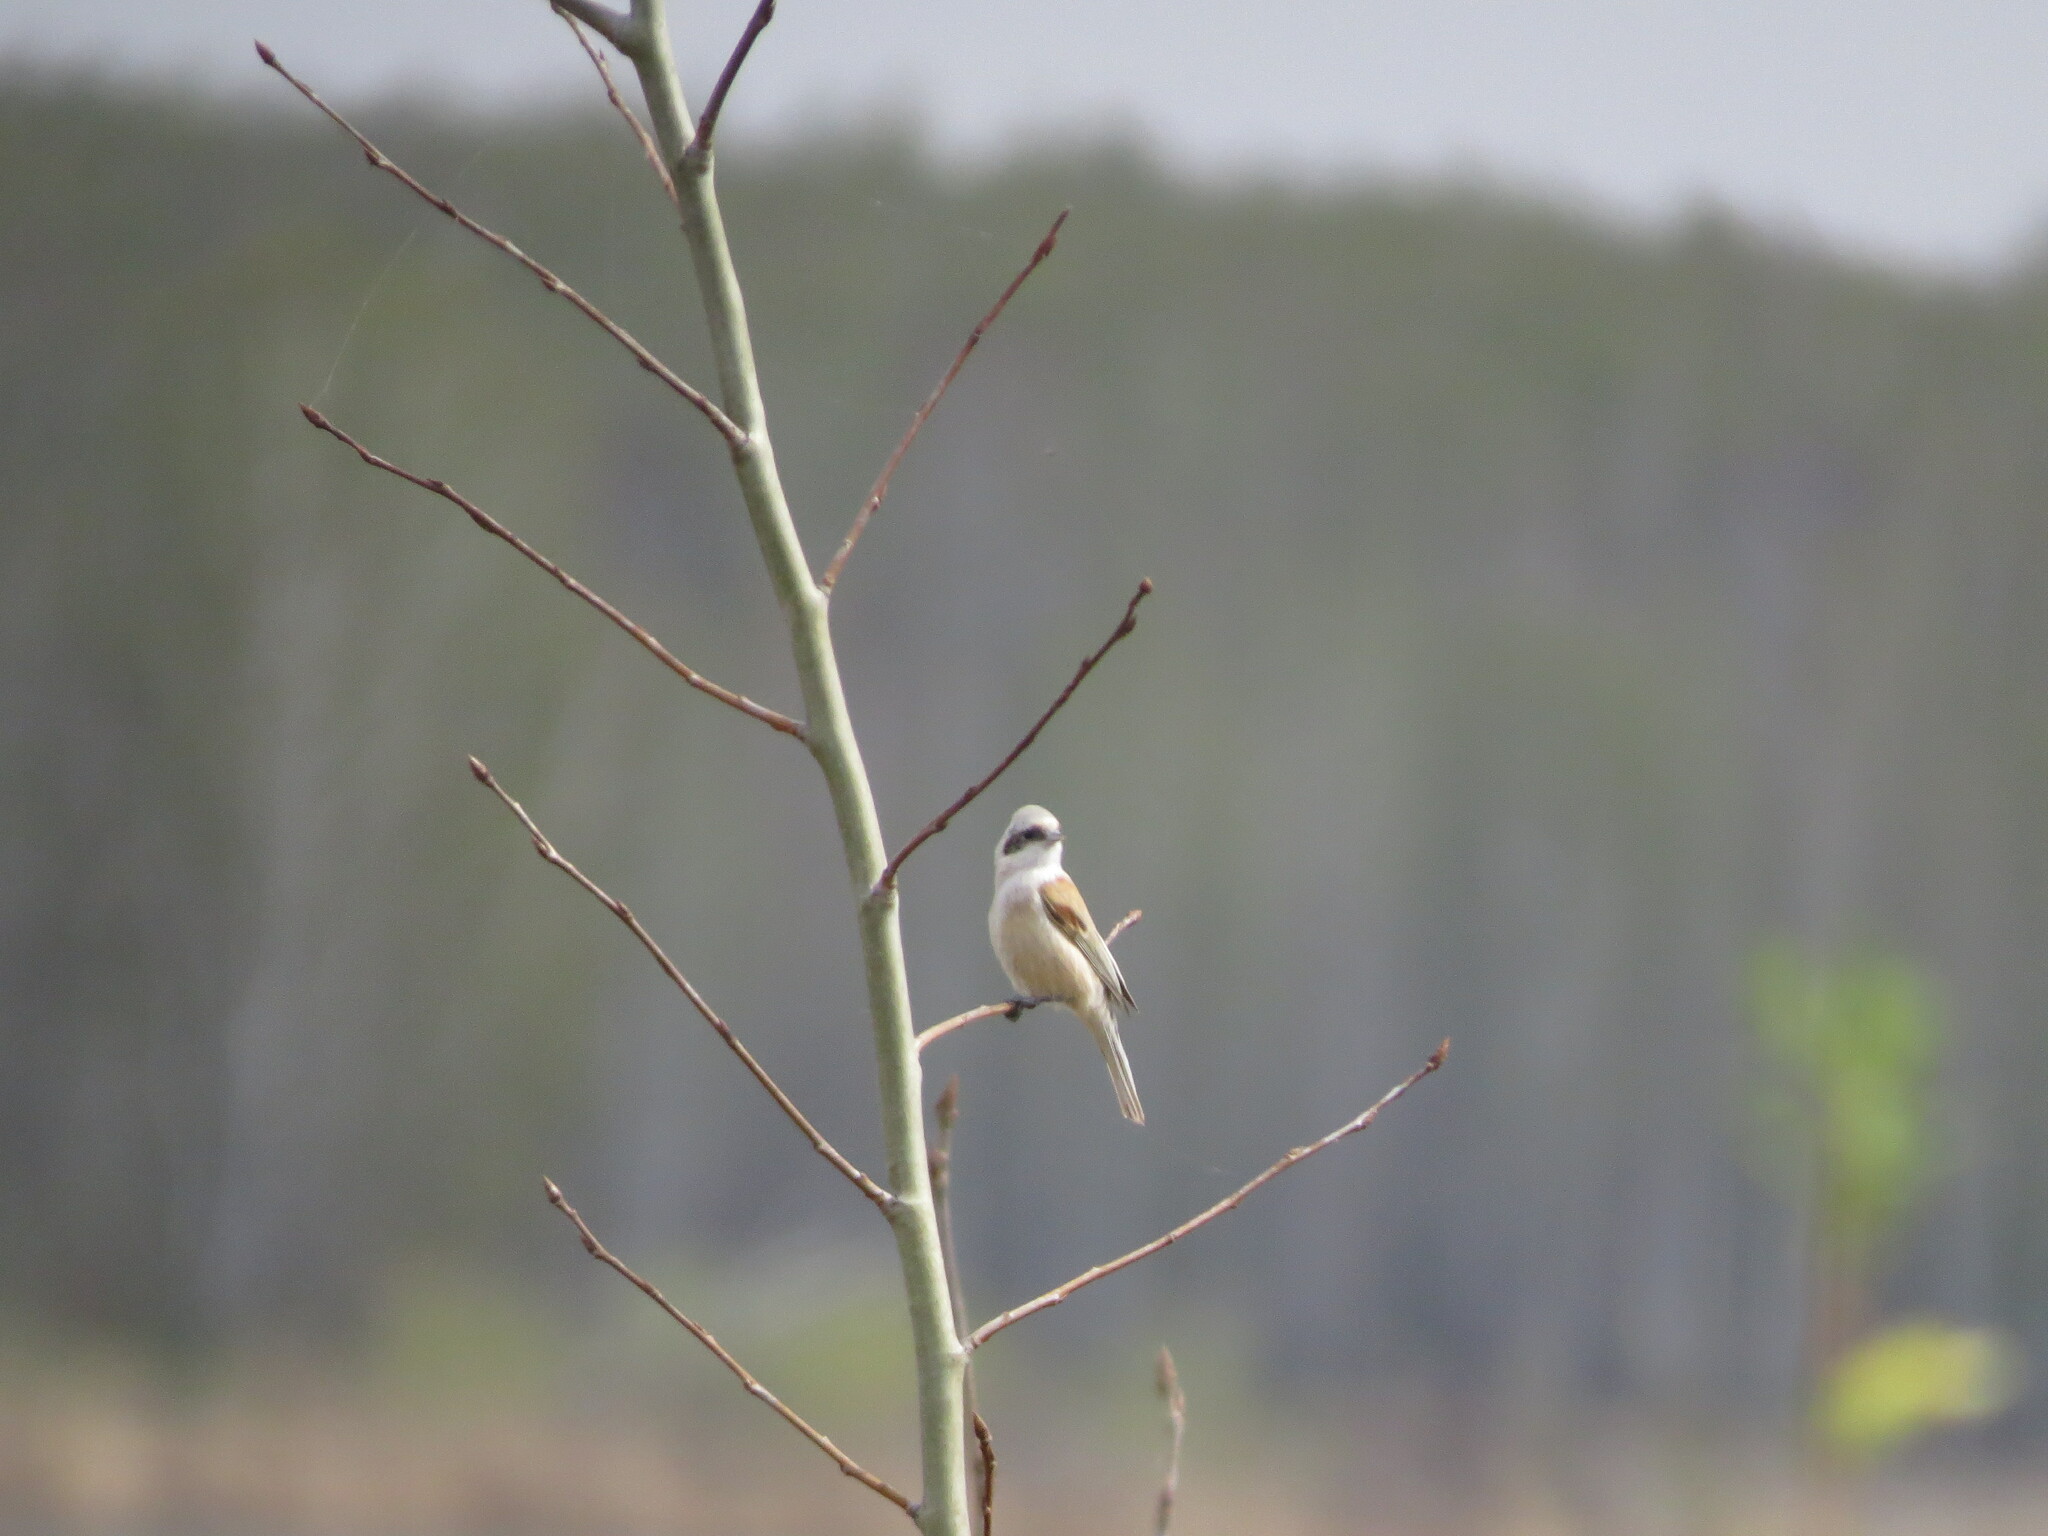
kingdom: Animalia
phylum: Chordata
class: Aves
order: Passeriformes
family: Remizidae
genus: Remiz
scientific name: Remiz pendulinus
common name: Eurasian penduline tit
